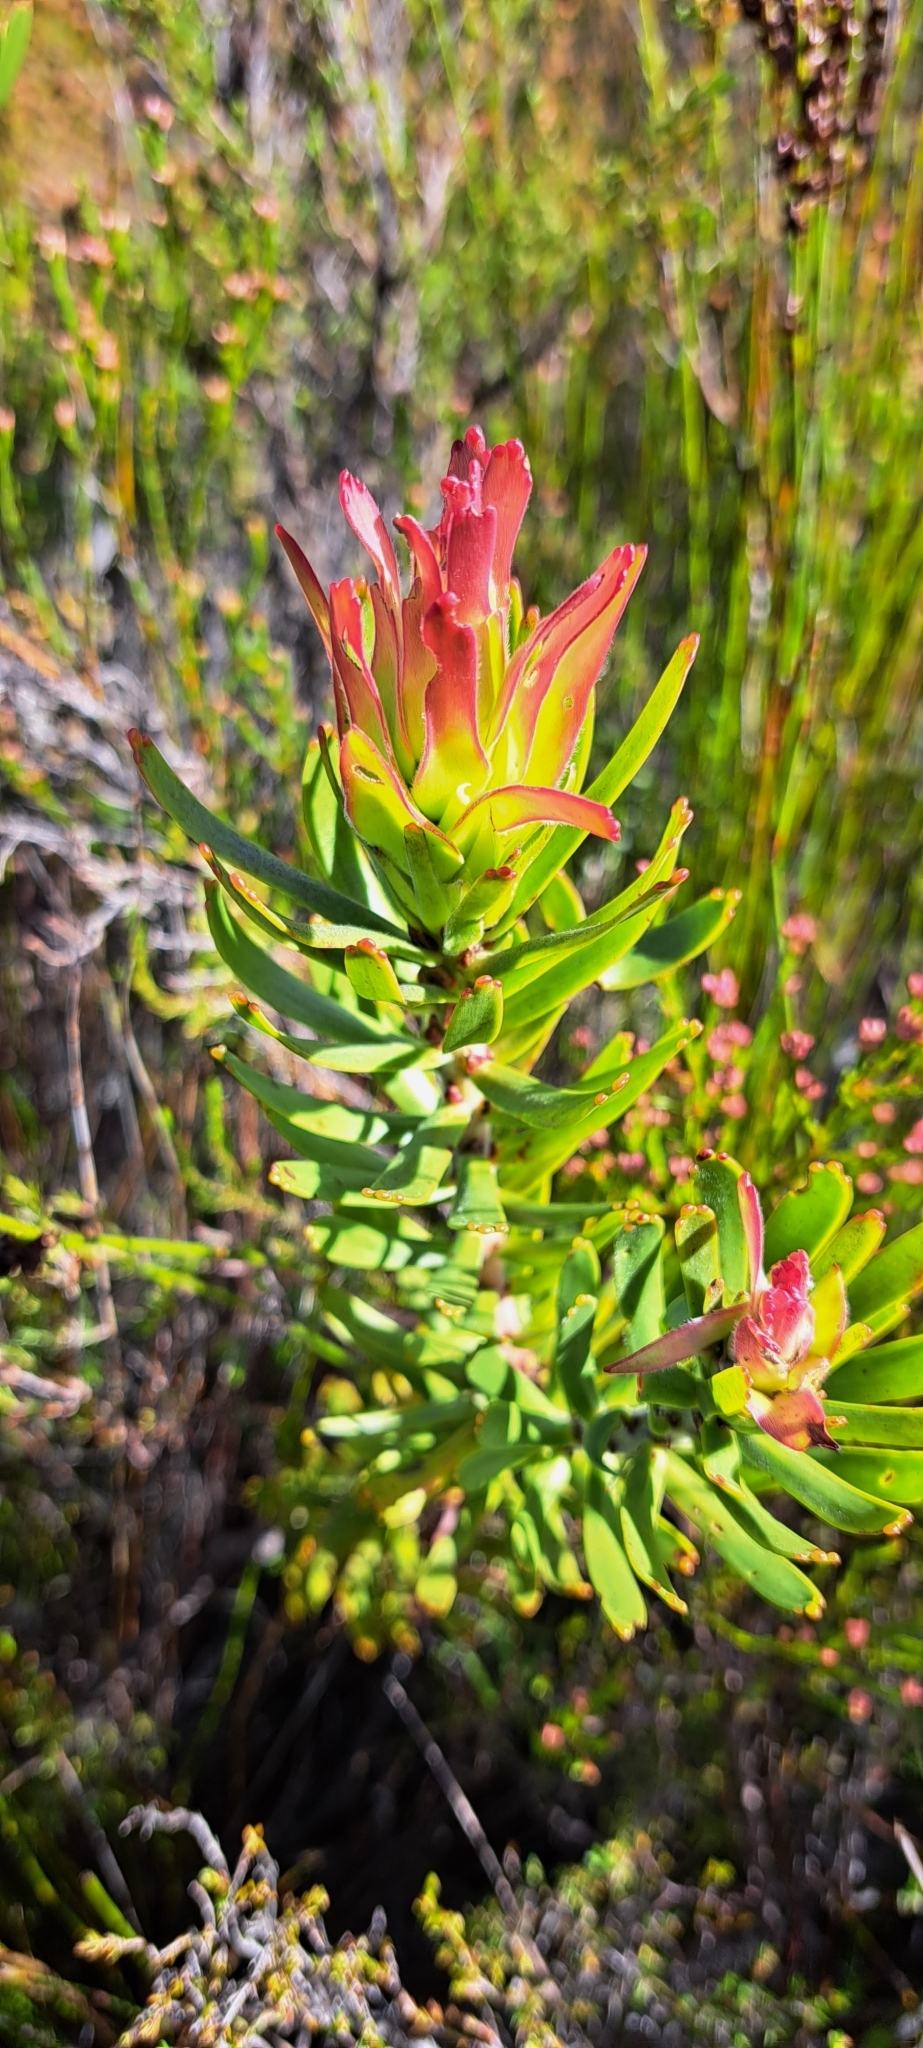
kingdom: Plantae
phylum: Tracheophyta
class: Magnoliopsida
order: Proteales
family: Proteaceae
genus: Mimetes
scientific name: Mimetes cucullatus
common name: Common pagoda
